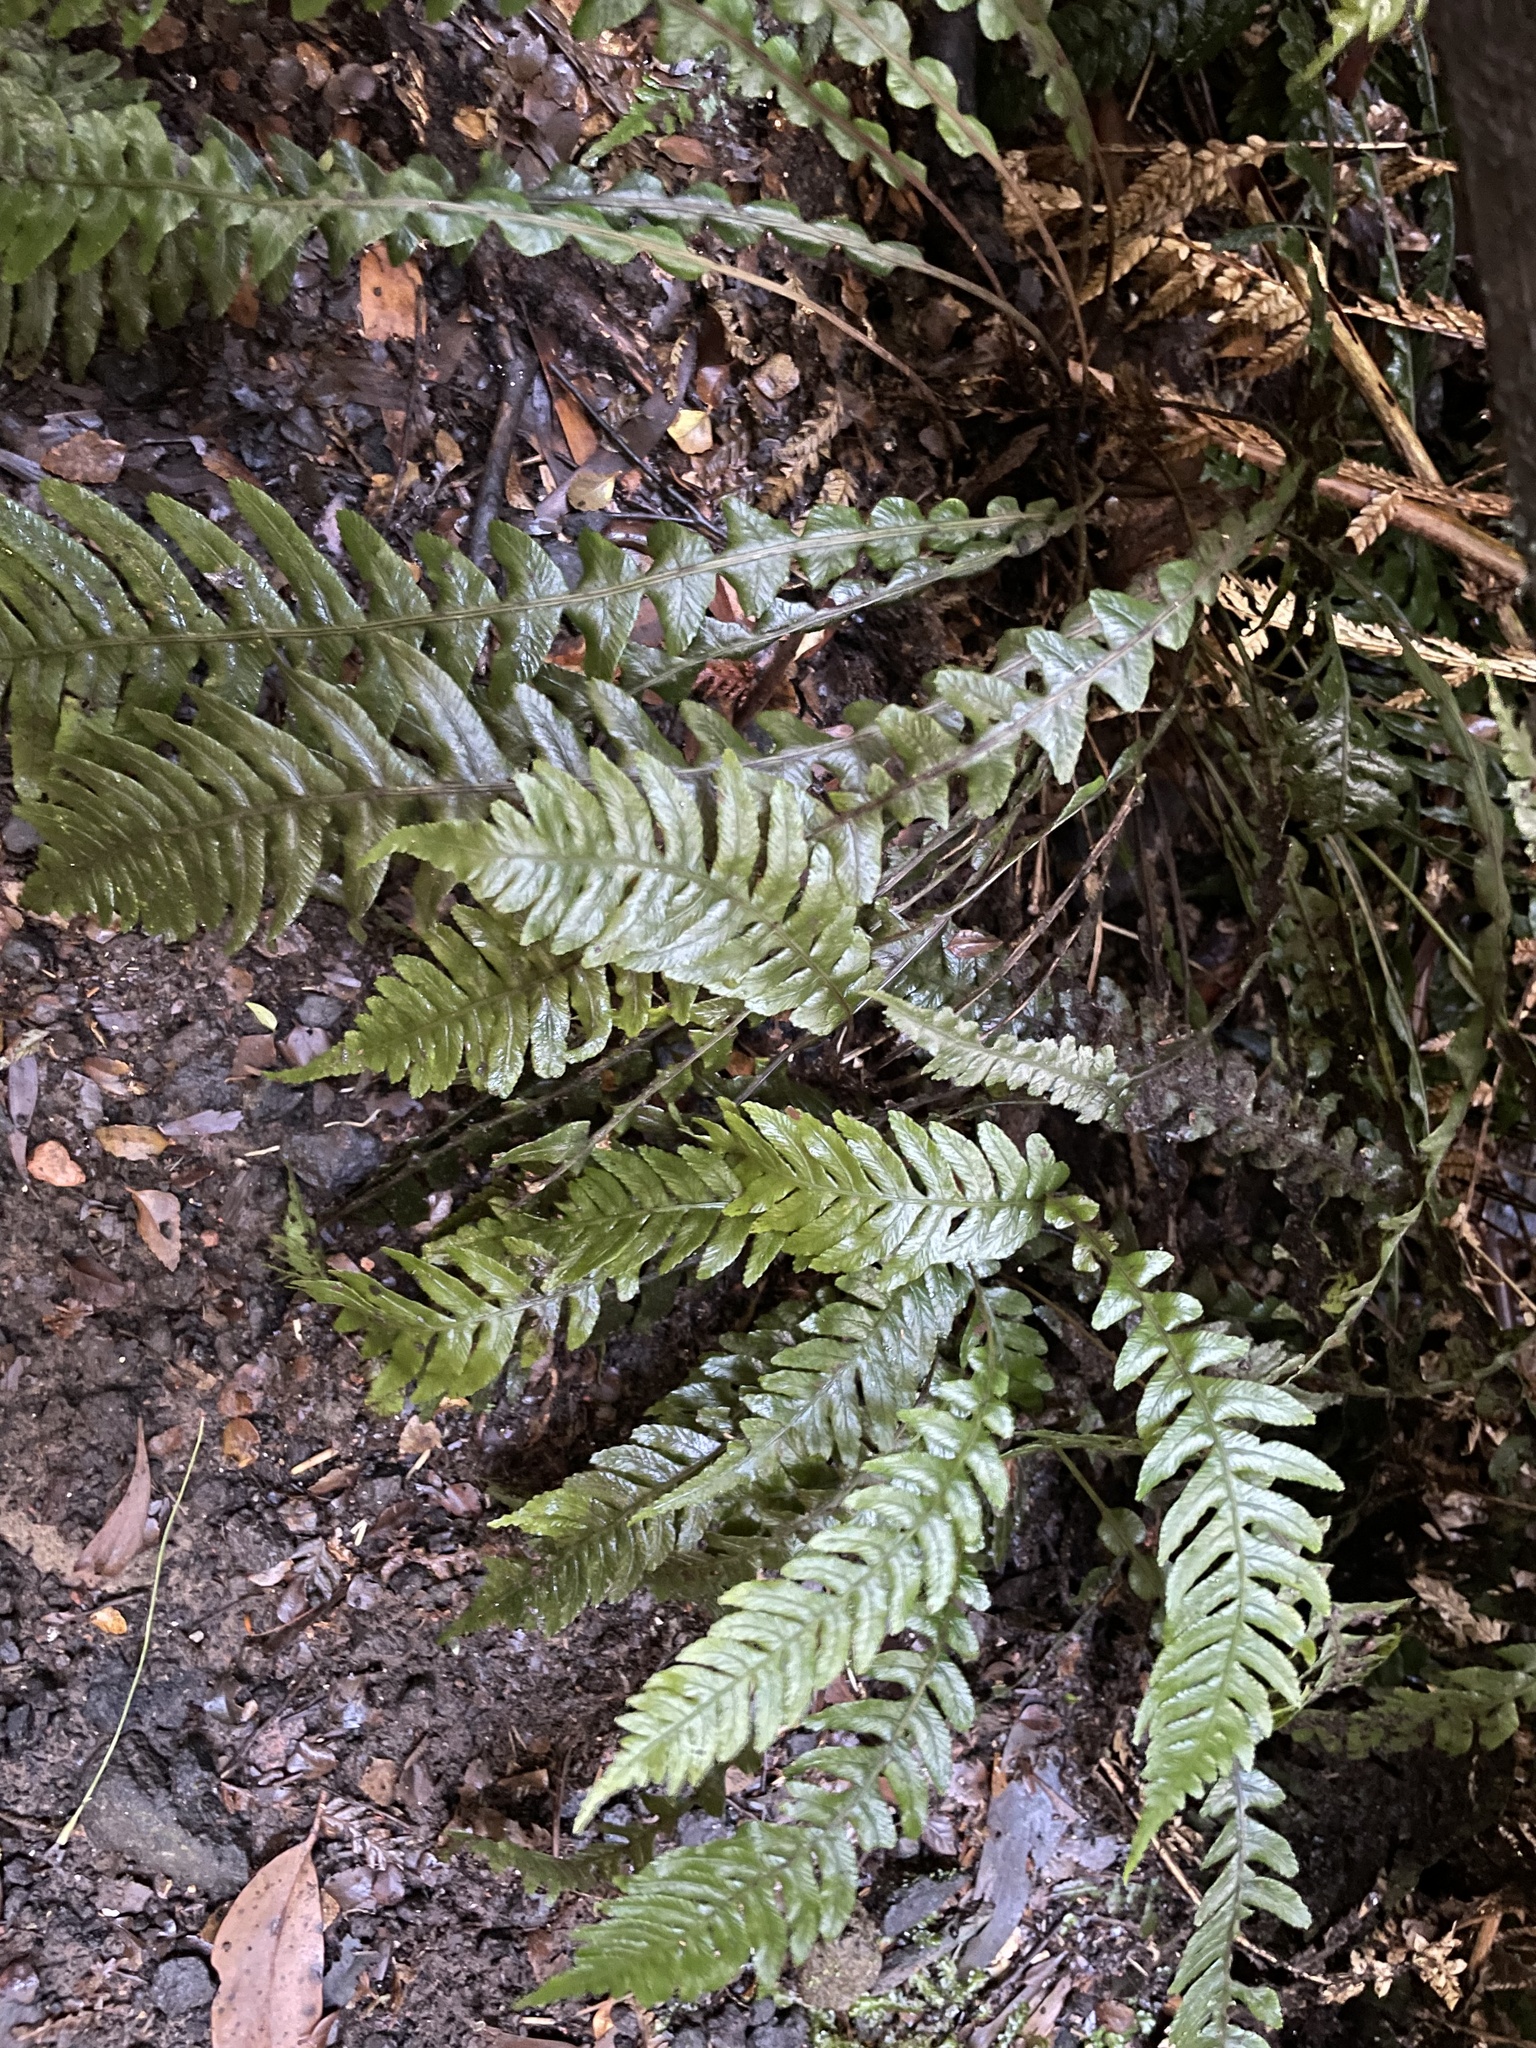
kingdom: Plantae
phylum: Tracheophyta
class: Polypodiopsida
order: Polypodiales
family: Blechnaceae
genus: Austroblechnum
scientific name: Austroblechnum lanceolatum
